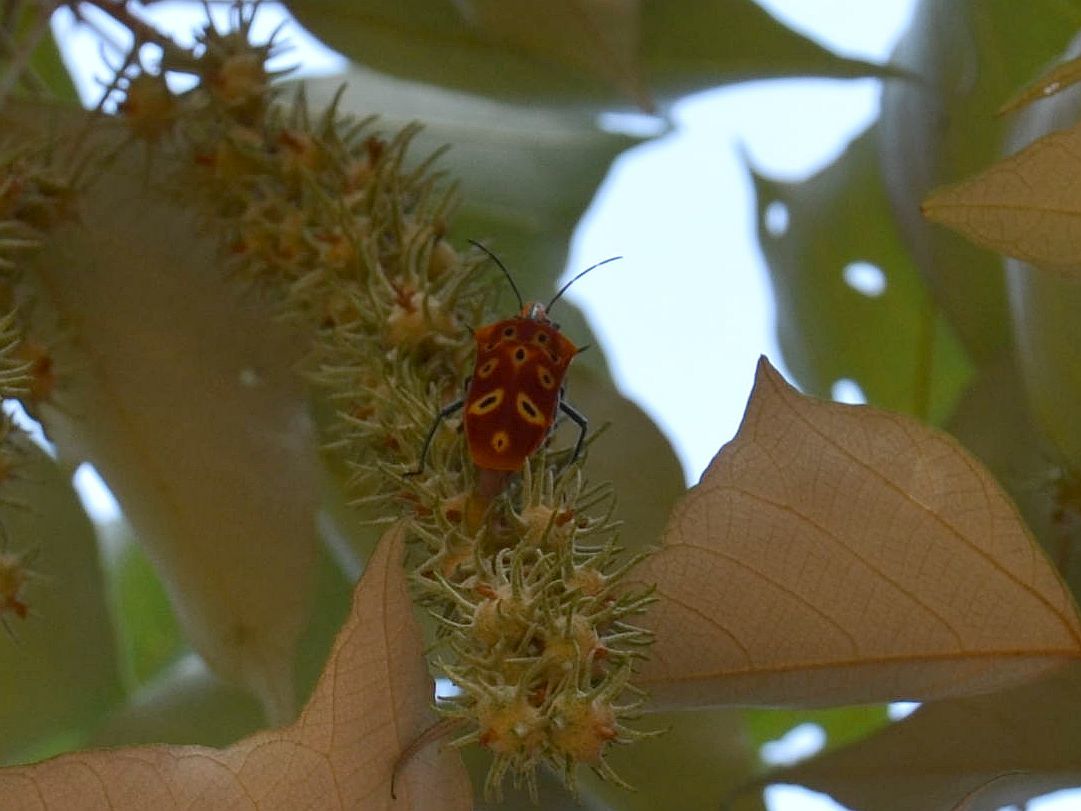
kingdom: Animalia
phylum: Arthropoda
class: Insecta
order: Hemiptera
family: Scutelleridae
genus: Cantao
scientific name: Cantao ocellatus
